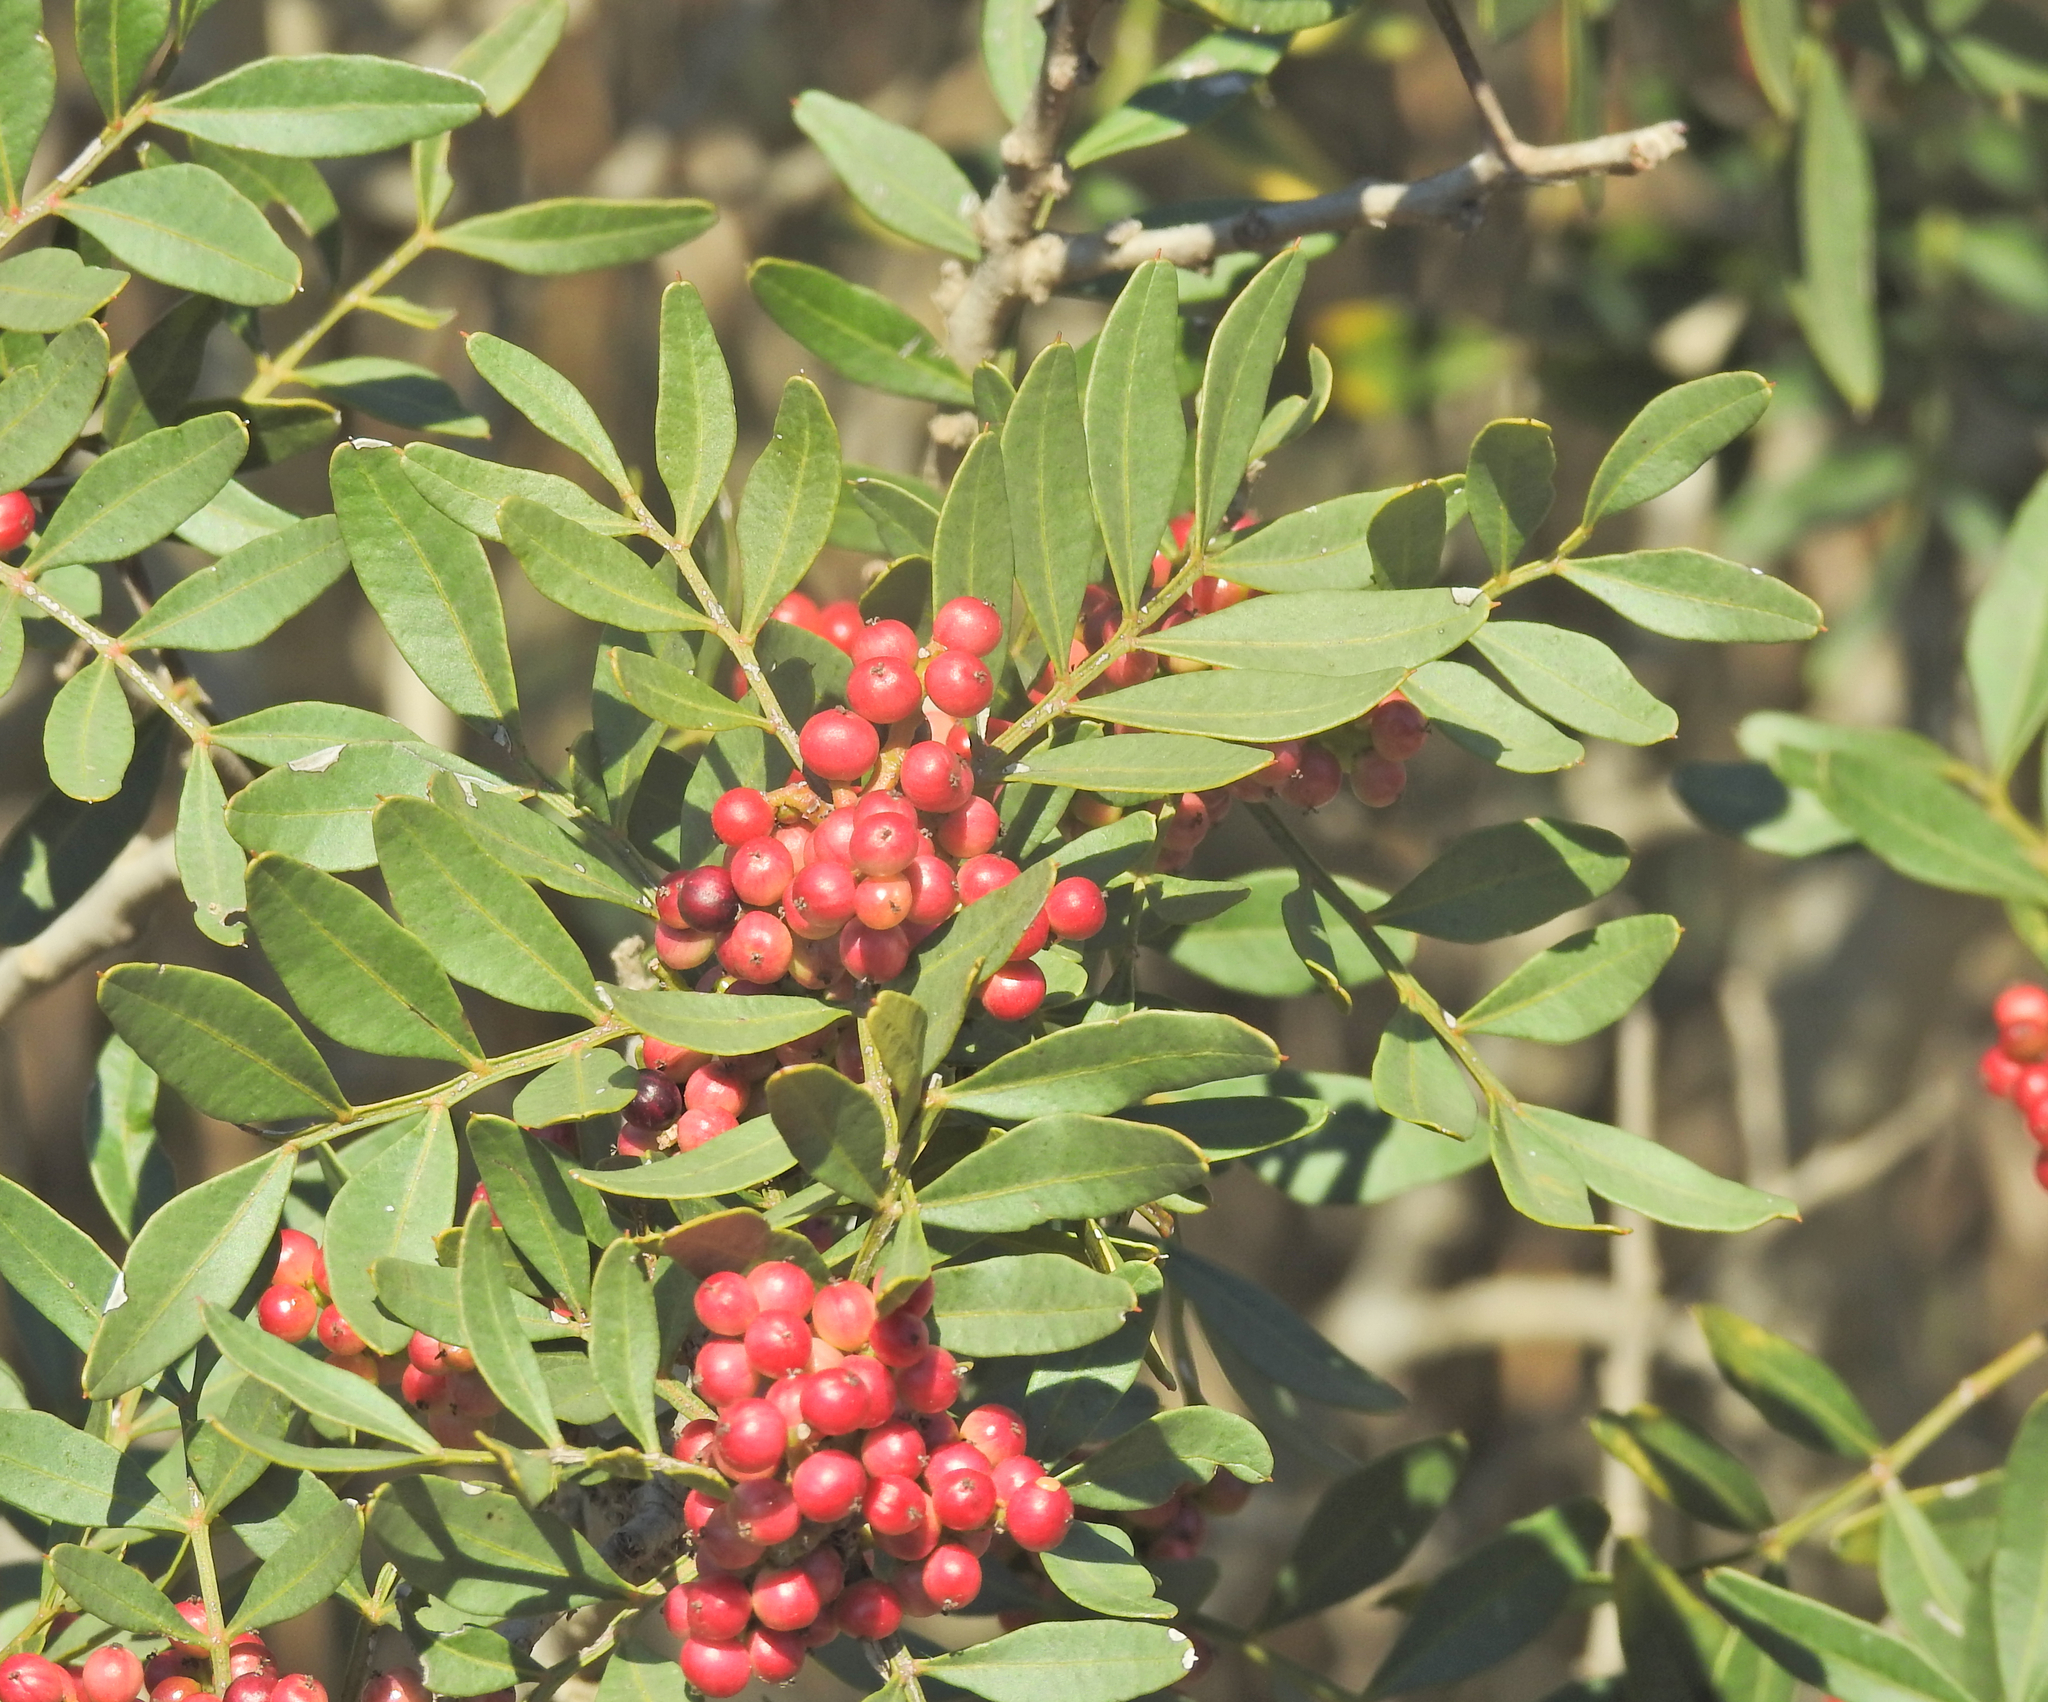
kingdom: Plantae
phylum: Tracheophyta
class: Magnoliopsida
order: Sapindales
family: Anacardiaceae
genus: Pistacia
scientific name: Pistacia lentiscus
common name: Lentisk
